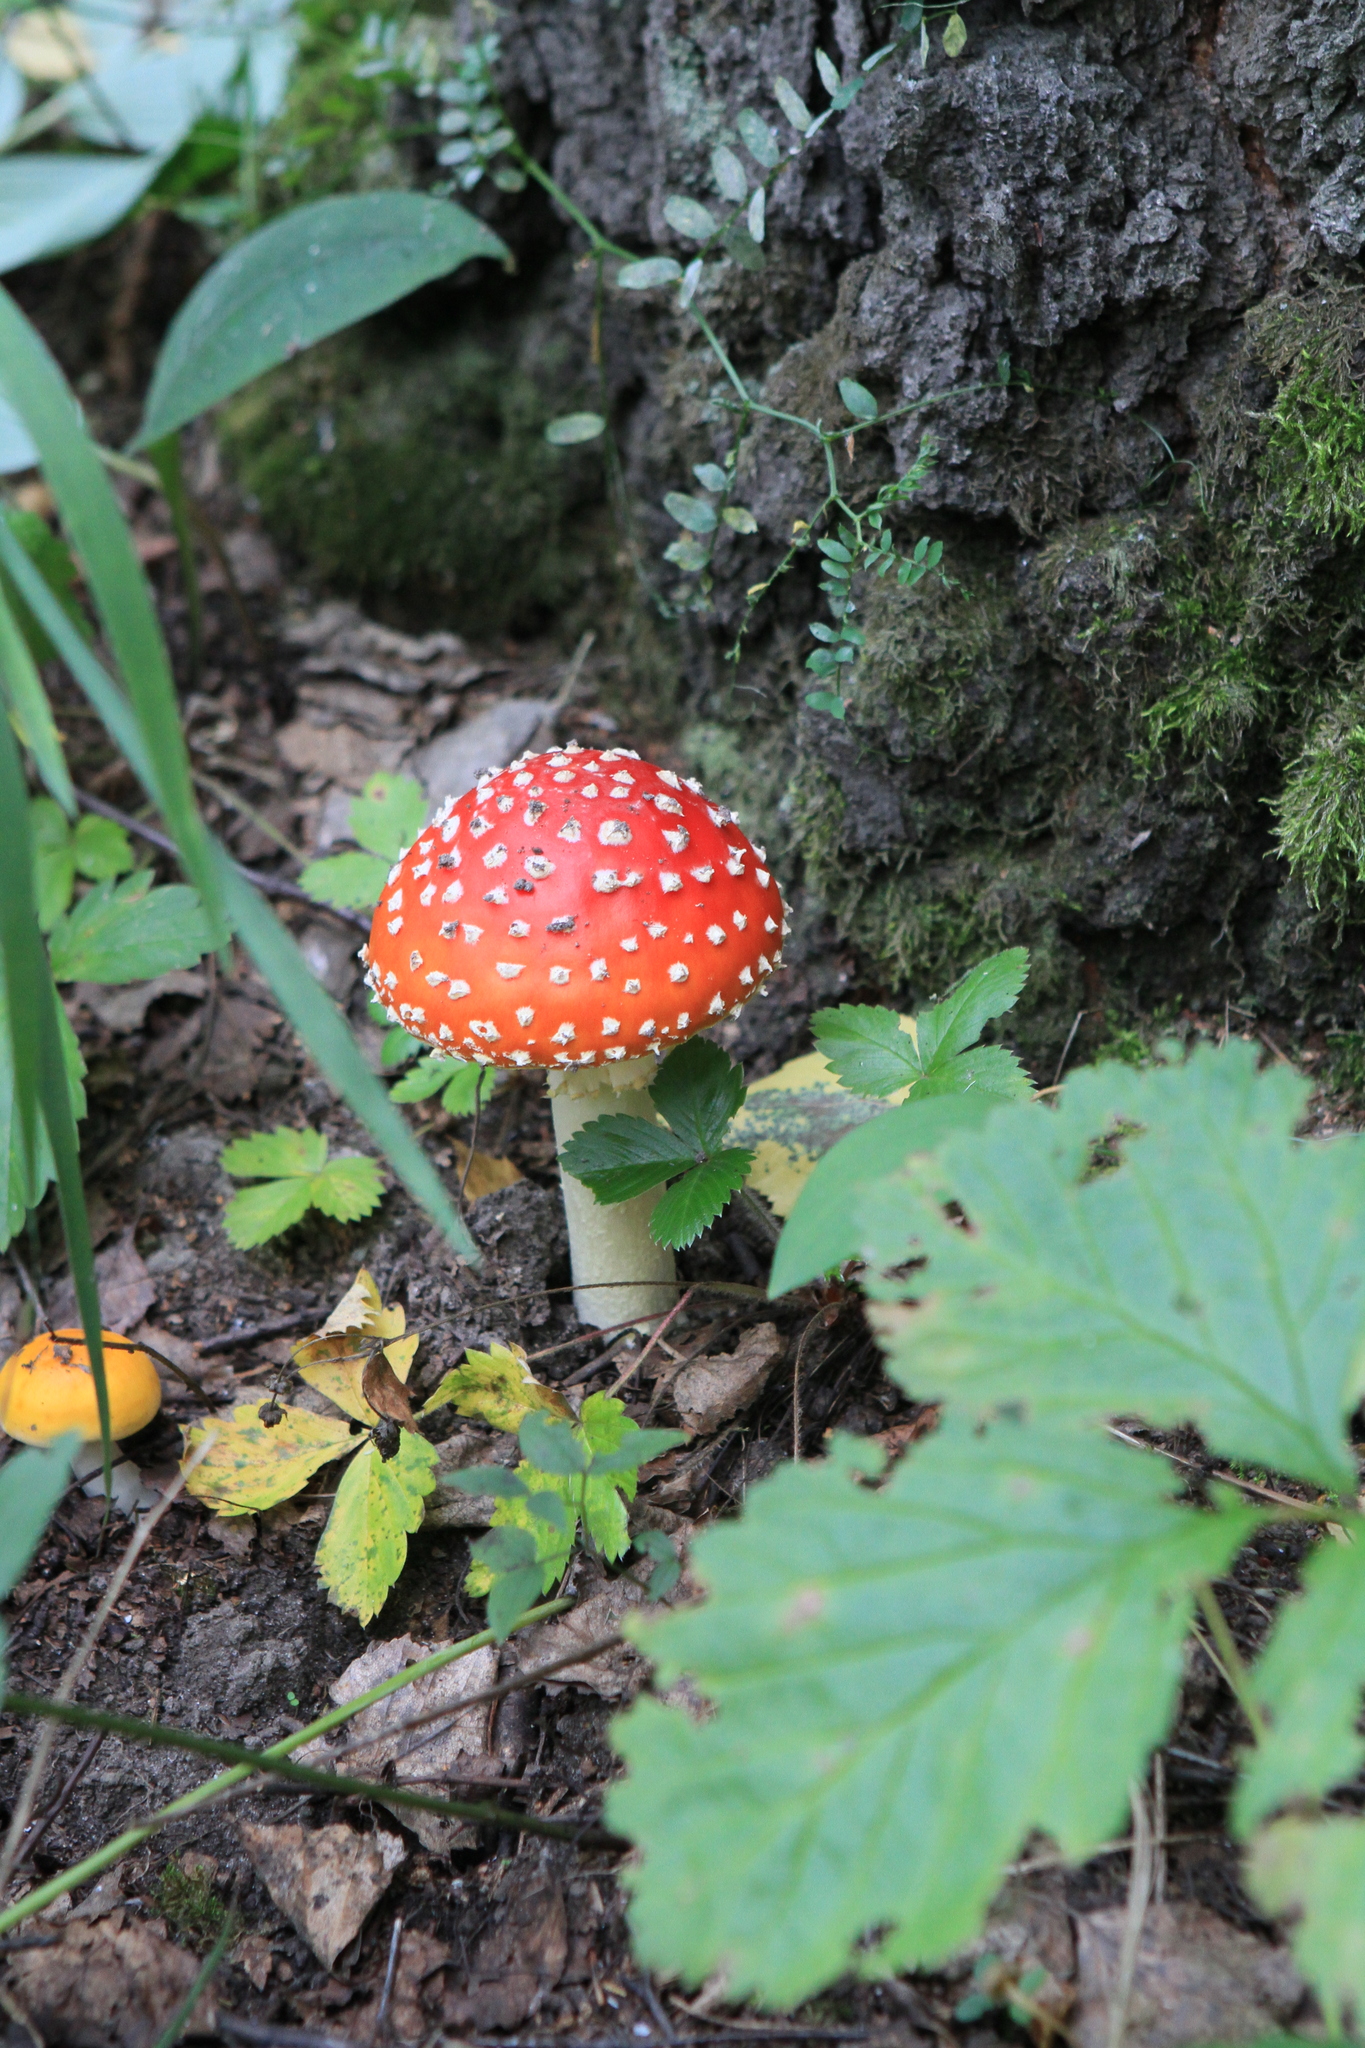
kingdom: Fungi
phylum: Basidiomycota
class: Agaricomycetes
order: Agaricales
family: Amanitaceae
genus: Amanita
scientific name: Amanita muscaria
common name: Fly agaric
